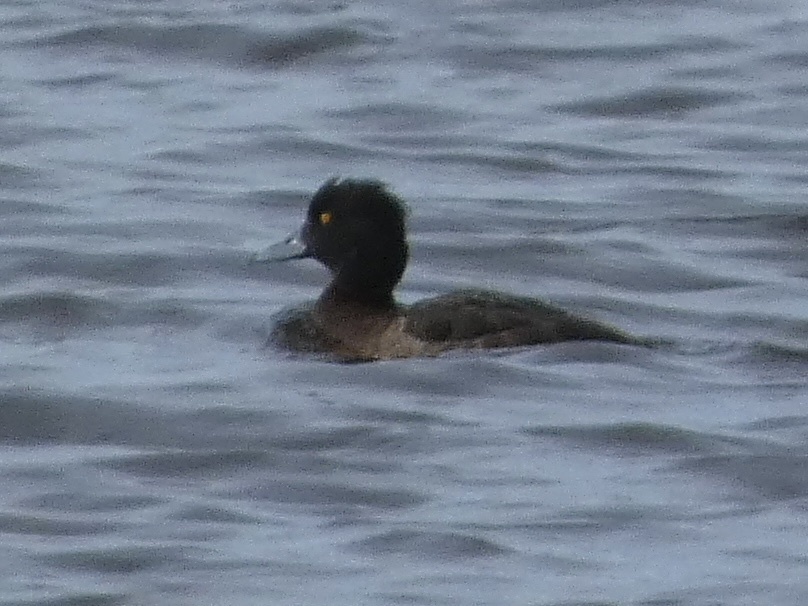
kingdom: Animalia
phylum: Chordata
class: Aves
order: Anseriformes
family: Anatidae
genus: Aythya
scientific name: Aythya fuligula
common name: Tufted duck
